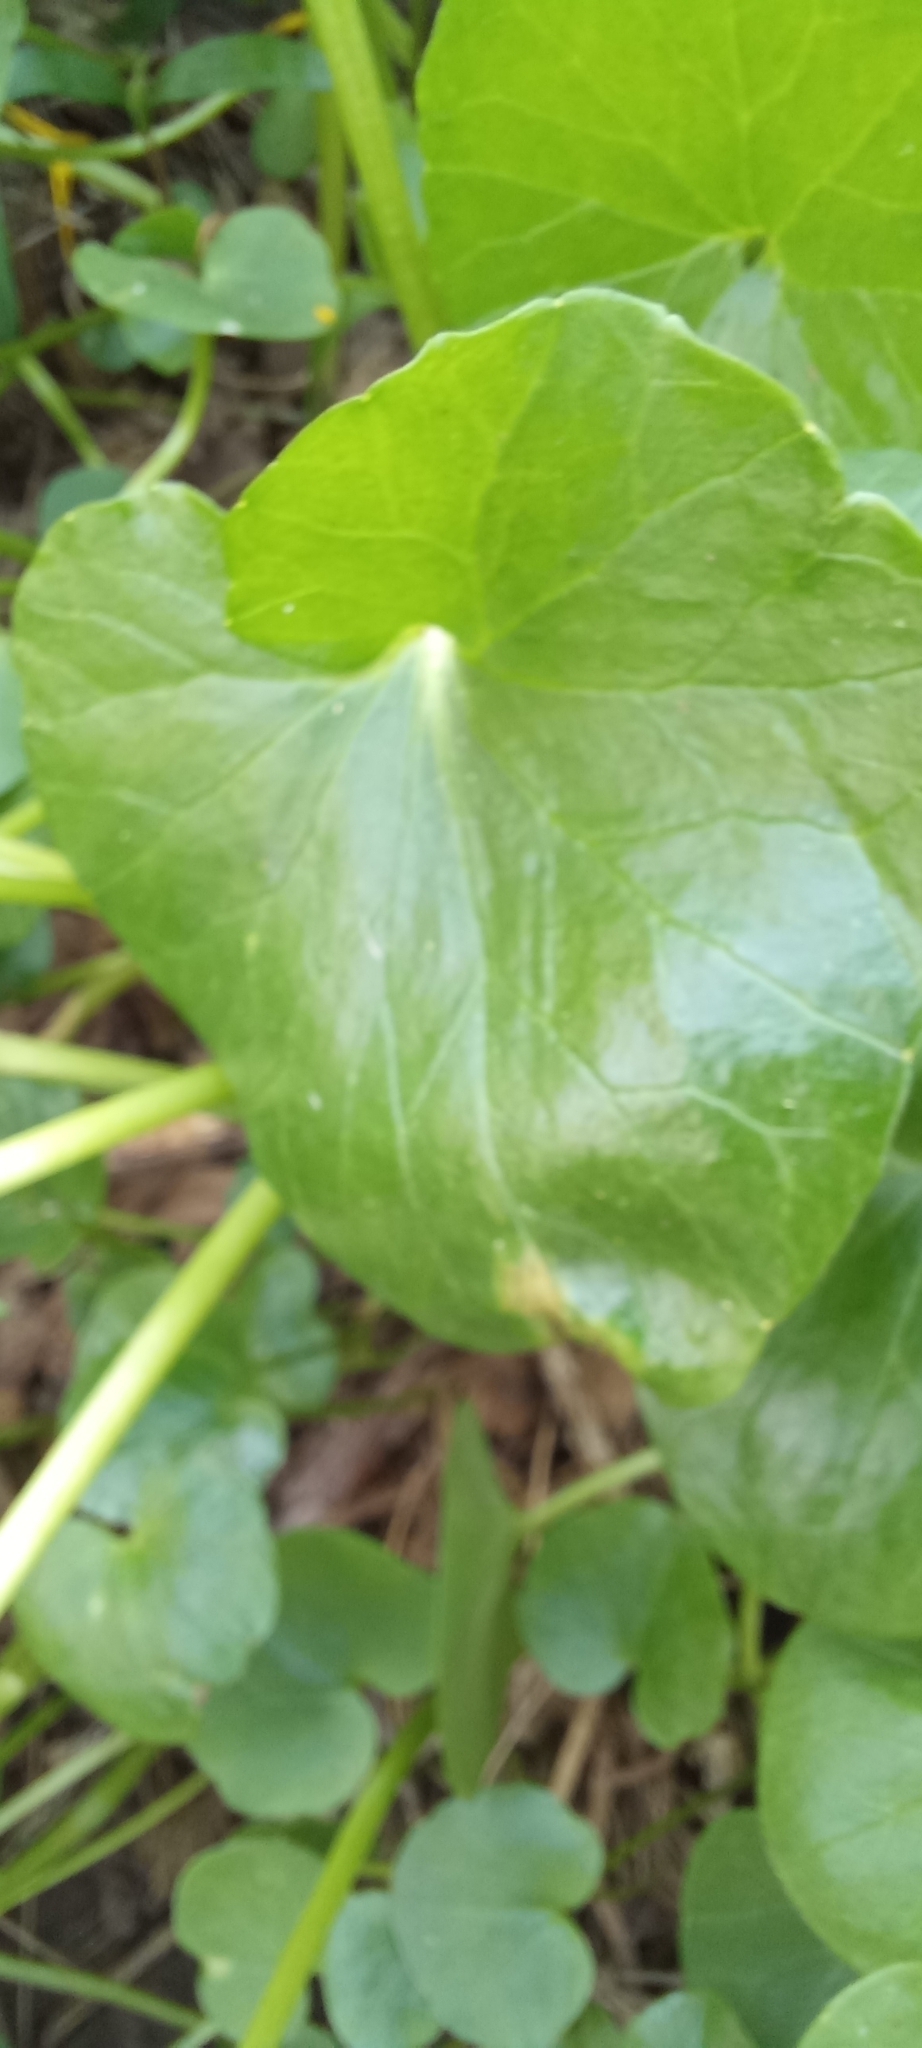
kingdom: Plantae
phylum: Tracheophyta
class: Magnoliopsida
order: Ranunculales
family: Ranunculaceae
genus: Ficaria
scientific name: Ficaria verna
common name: Lesser celandine
